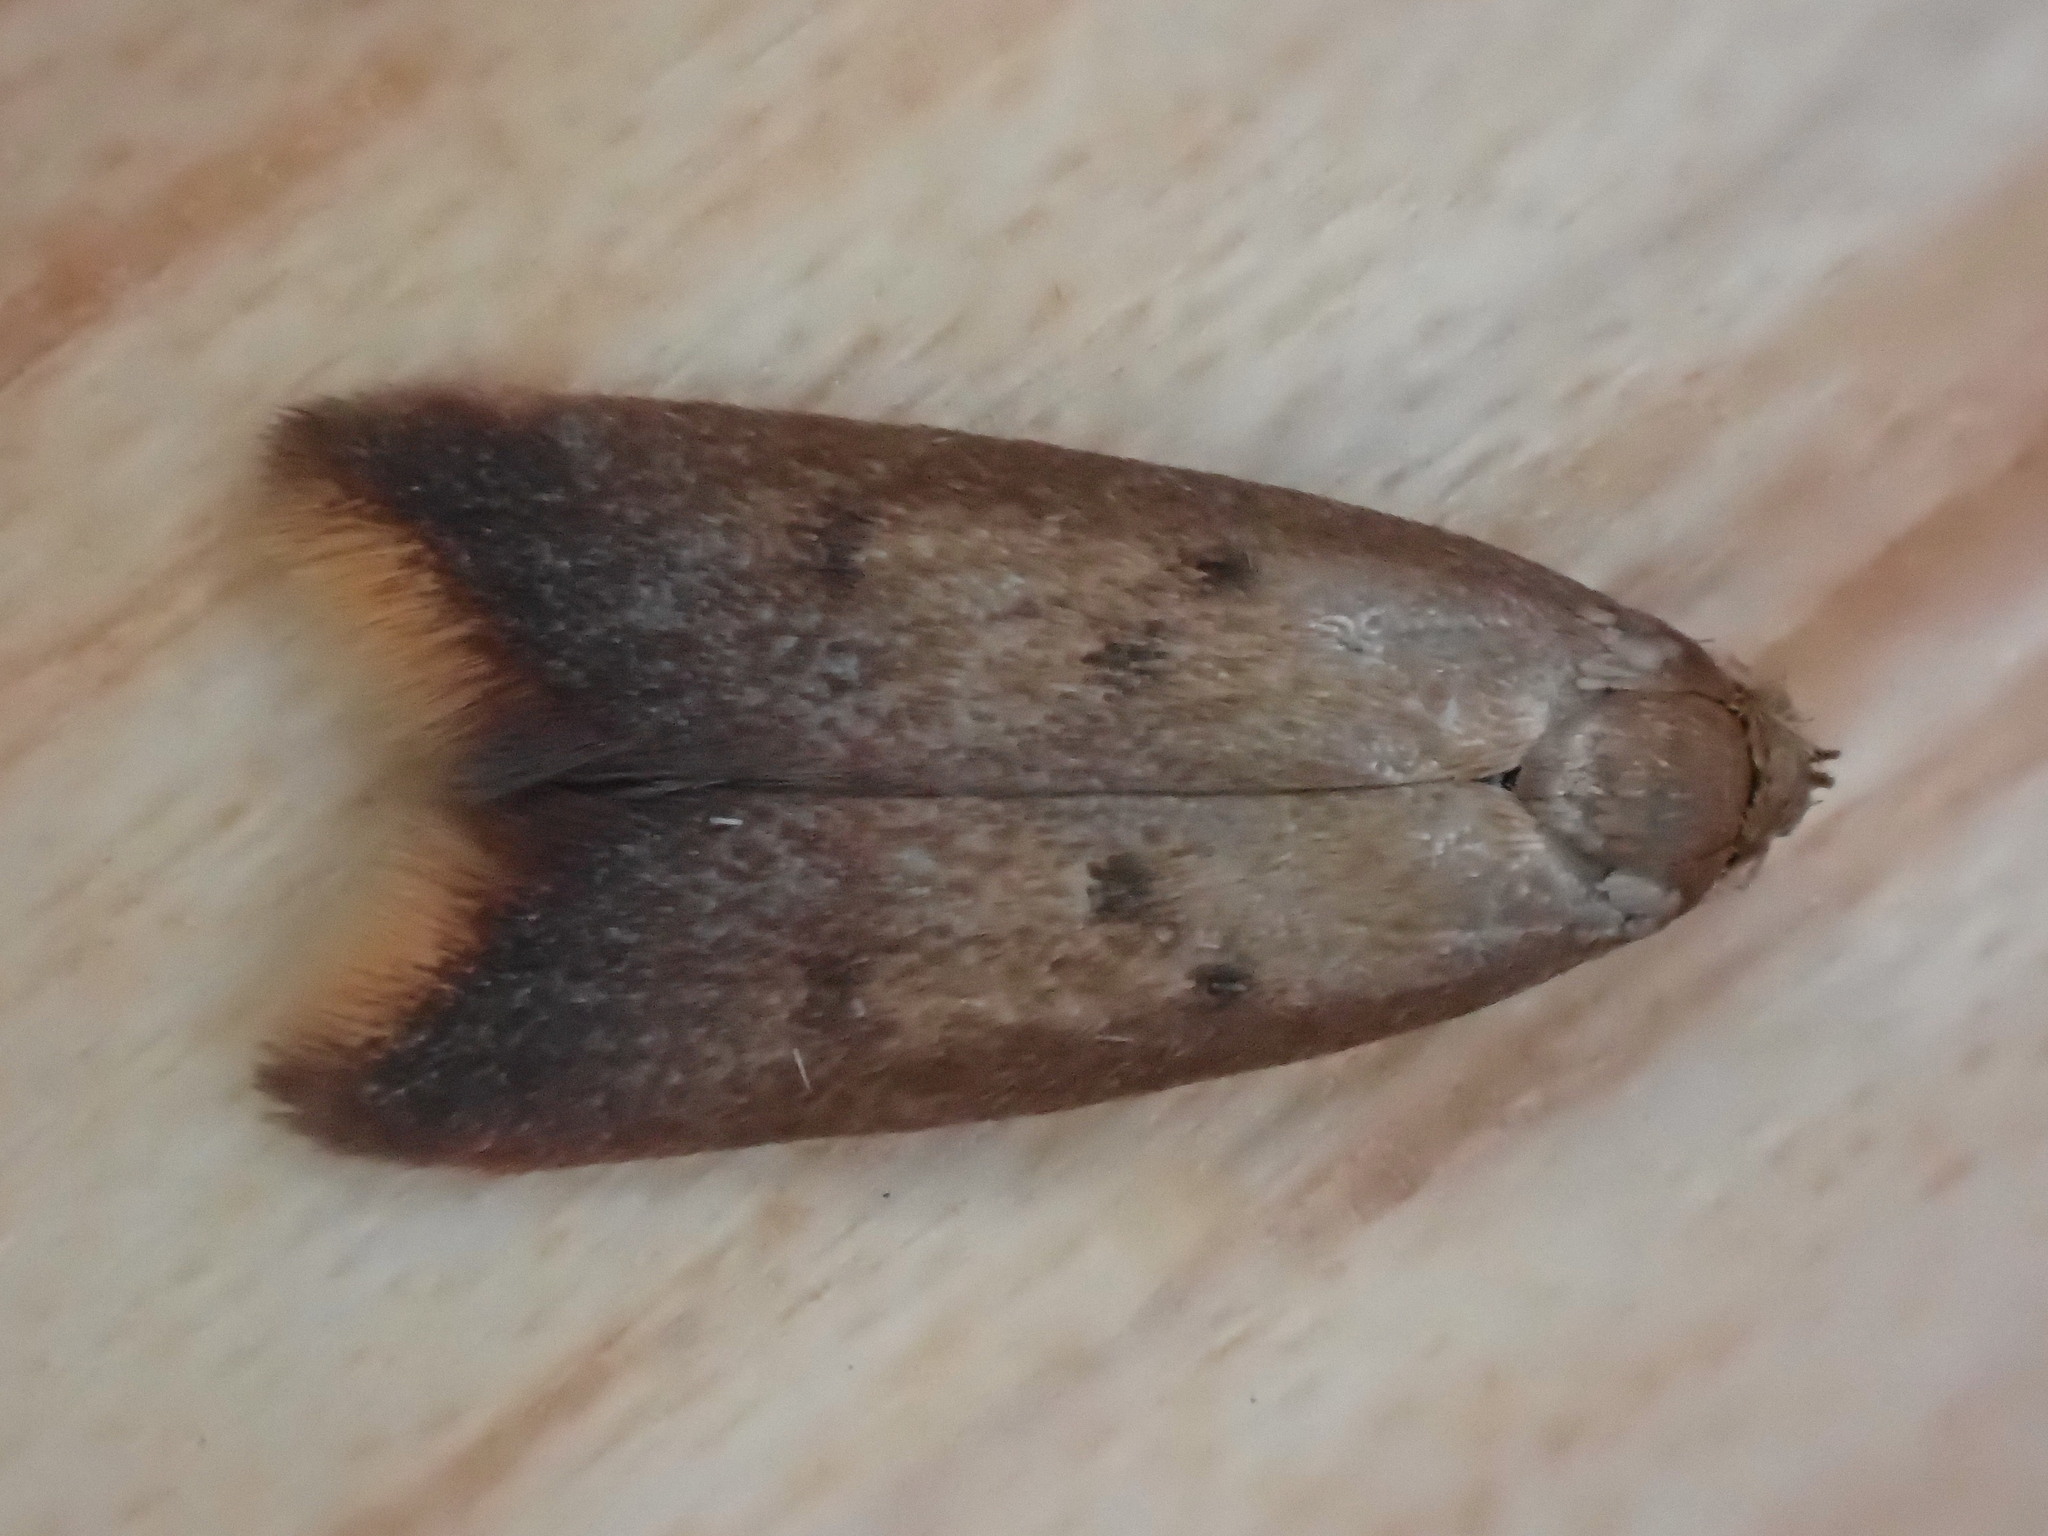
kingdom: Animalia
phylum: Arthropoda
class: Insecta
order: Lepidoptera
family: Oecophoridae
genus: Tachystola
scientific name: Tachystola acroxantha
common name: Ruddy streak
